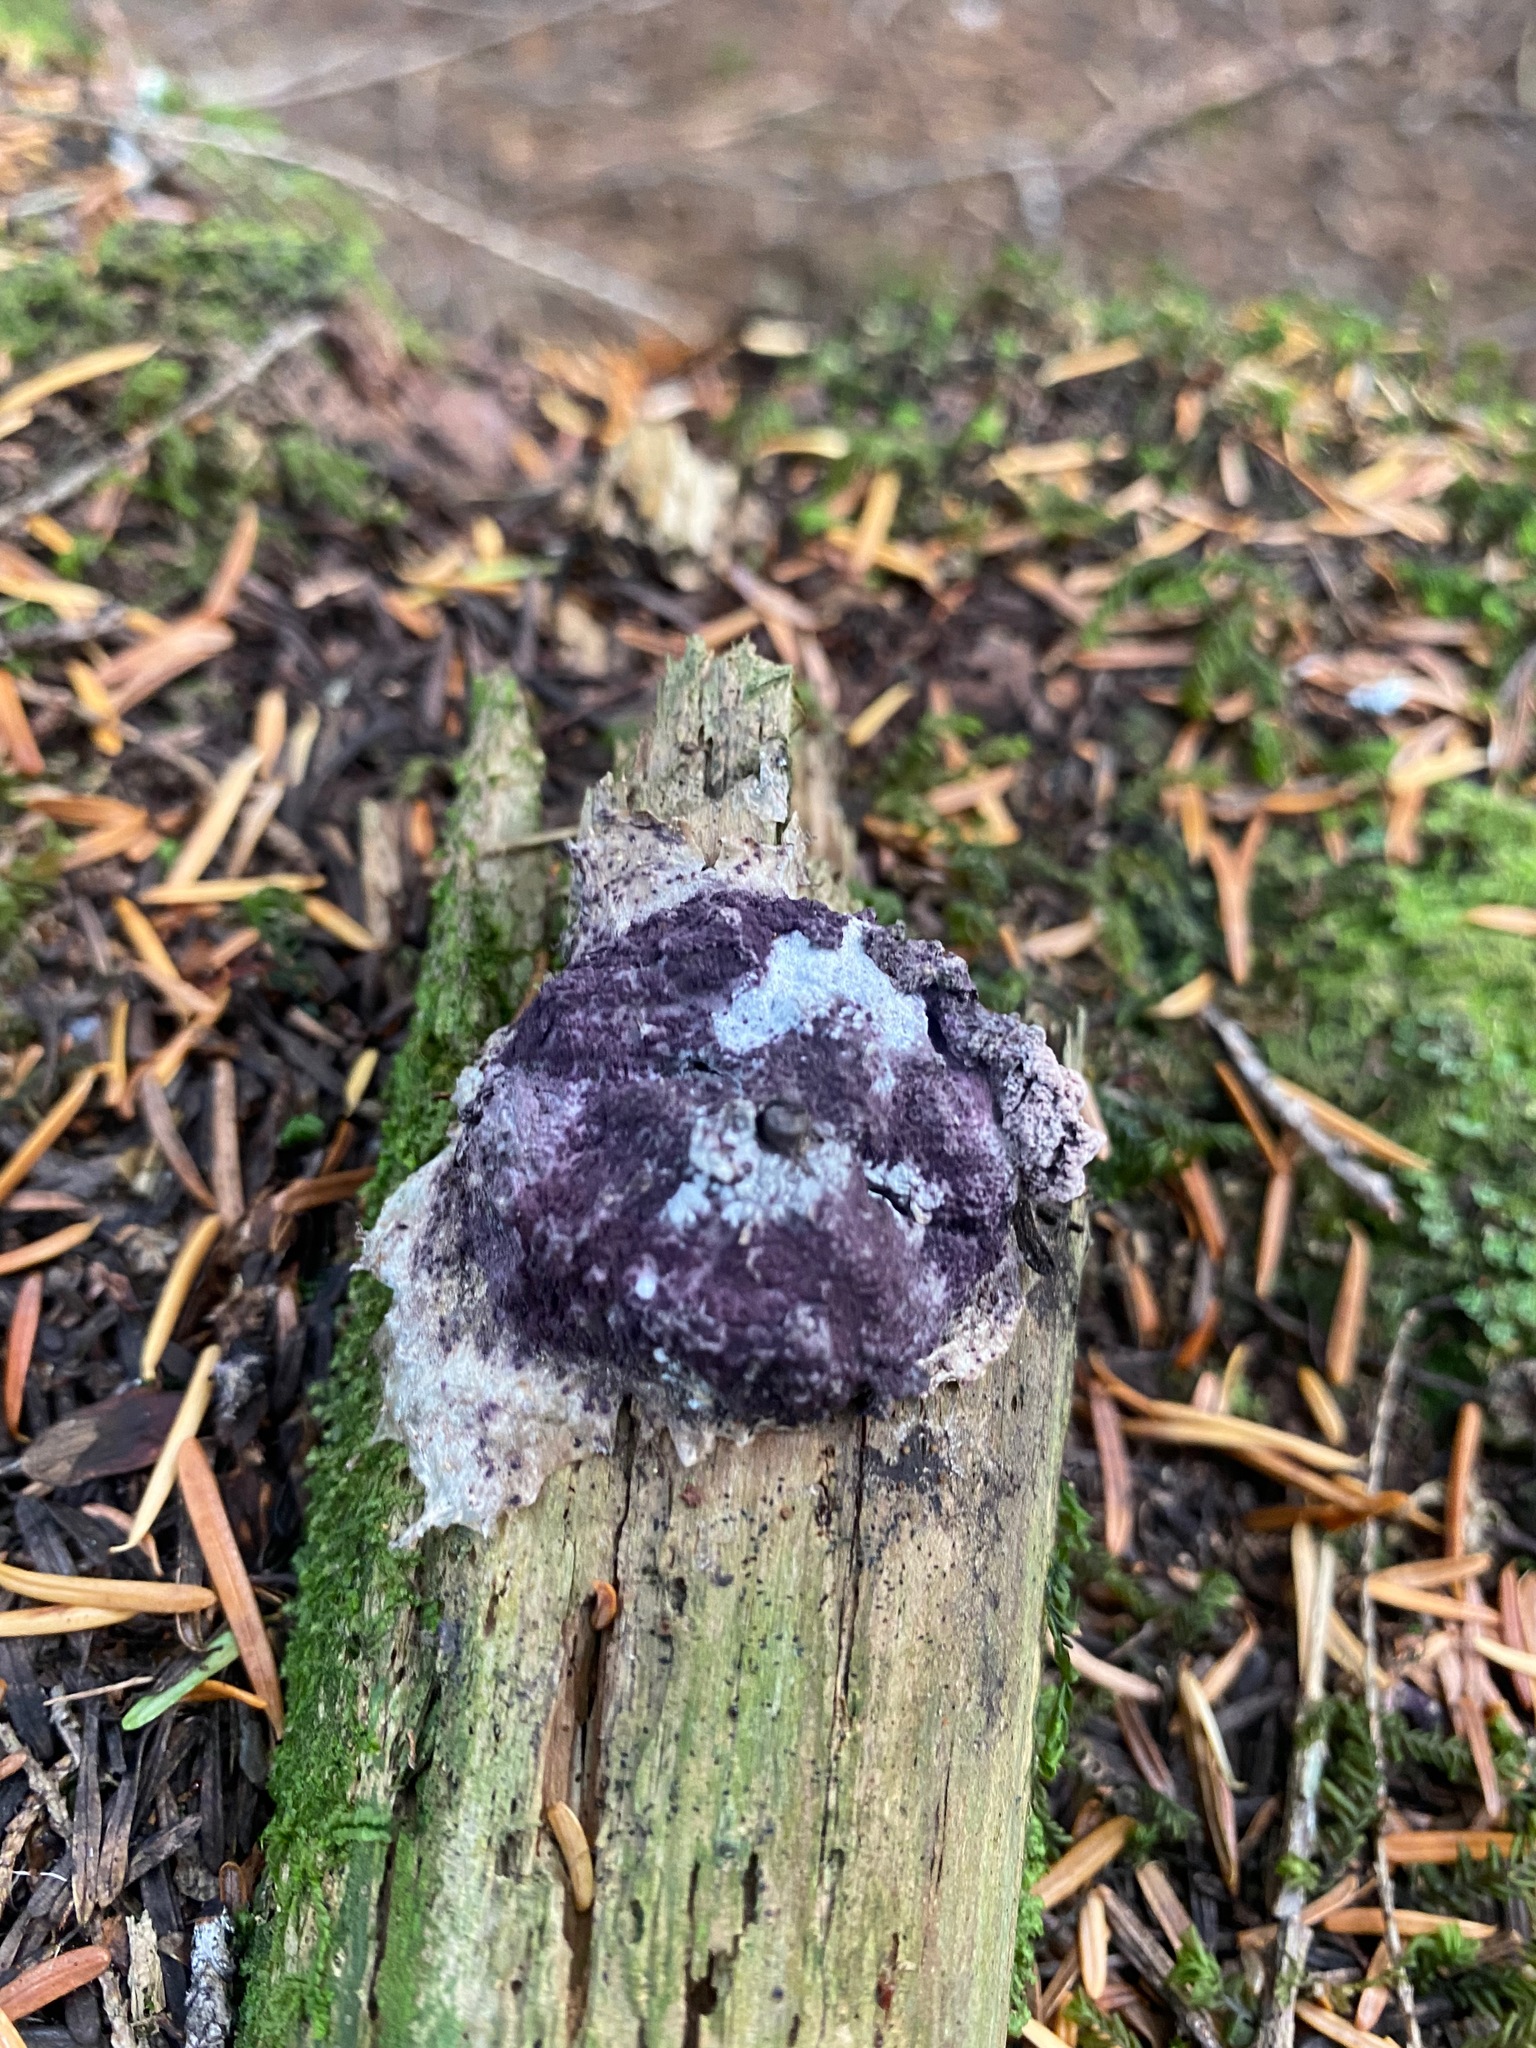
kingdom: Fungi
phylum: Ascomycota
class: Sordariomycetes
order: Hypocreales
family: Bionectriaceae
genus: Nectriopsis
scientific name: Nectriopsis violacea
